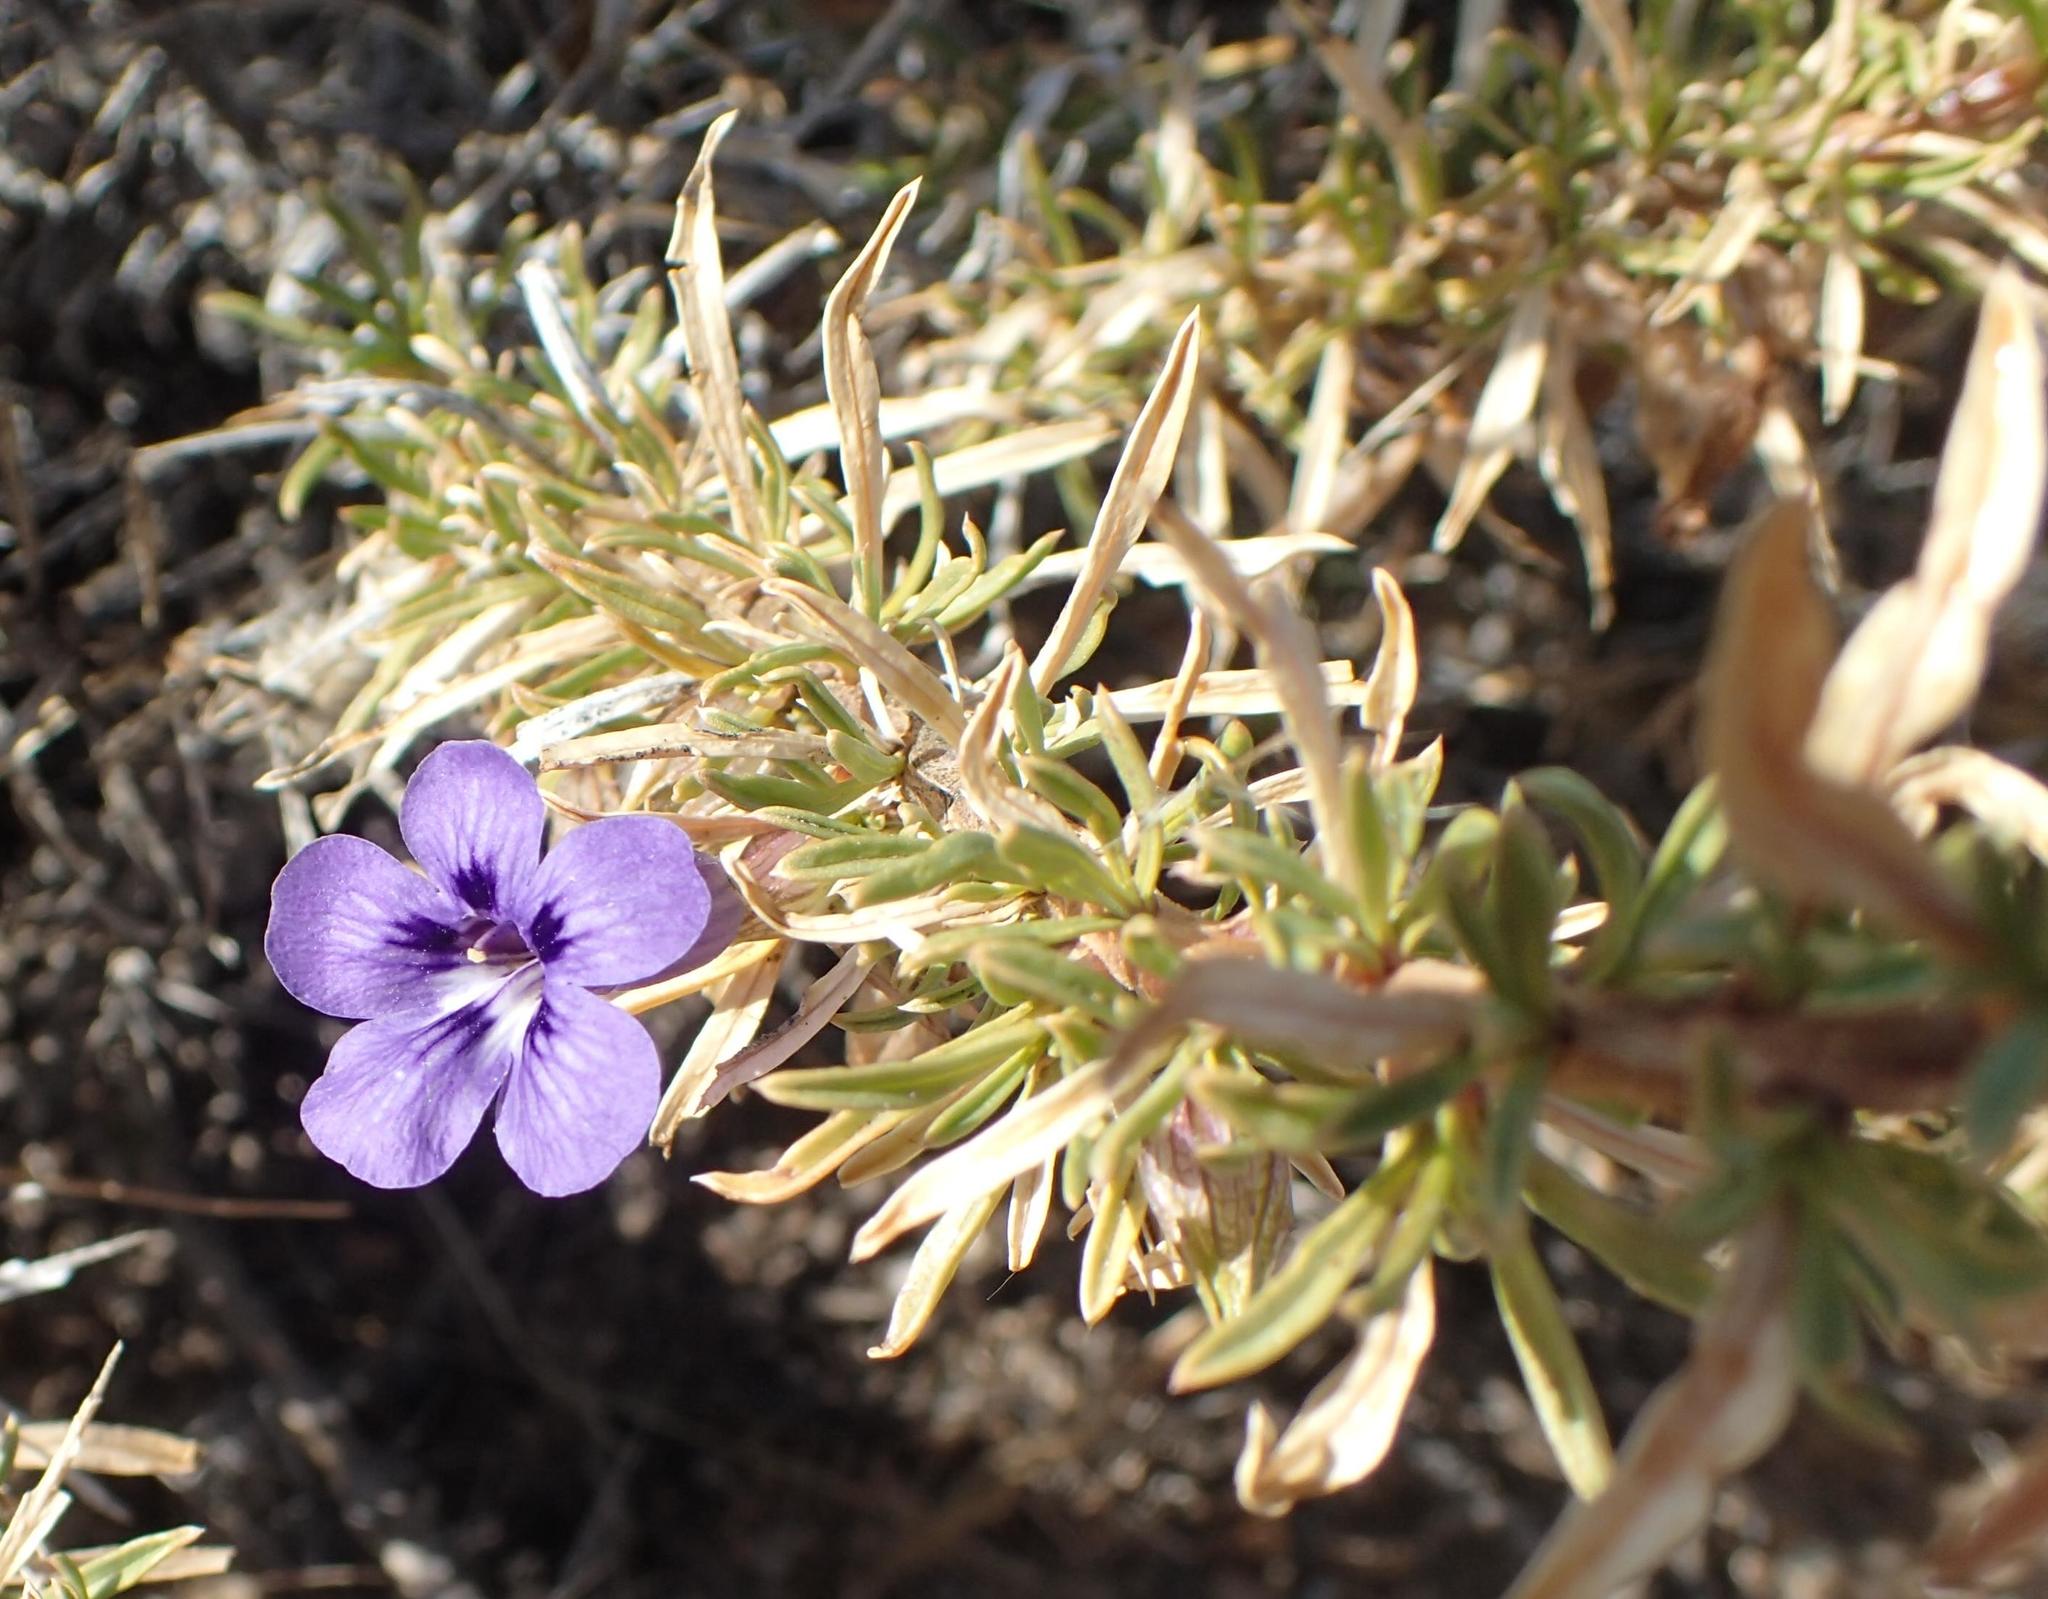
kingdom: Plantae
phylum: Tracheophyta
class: Magnoliopsida
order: Lamiales
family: Scrophulariaceae
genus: Aptosimum
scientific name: Aptosimum spinescens
